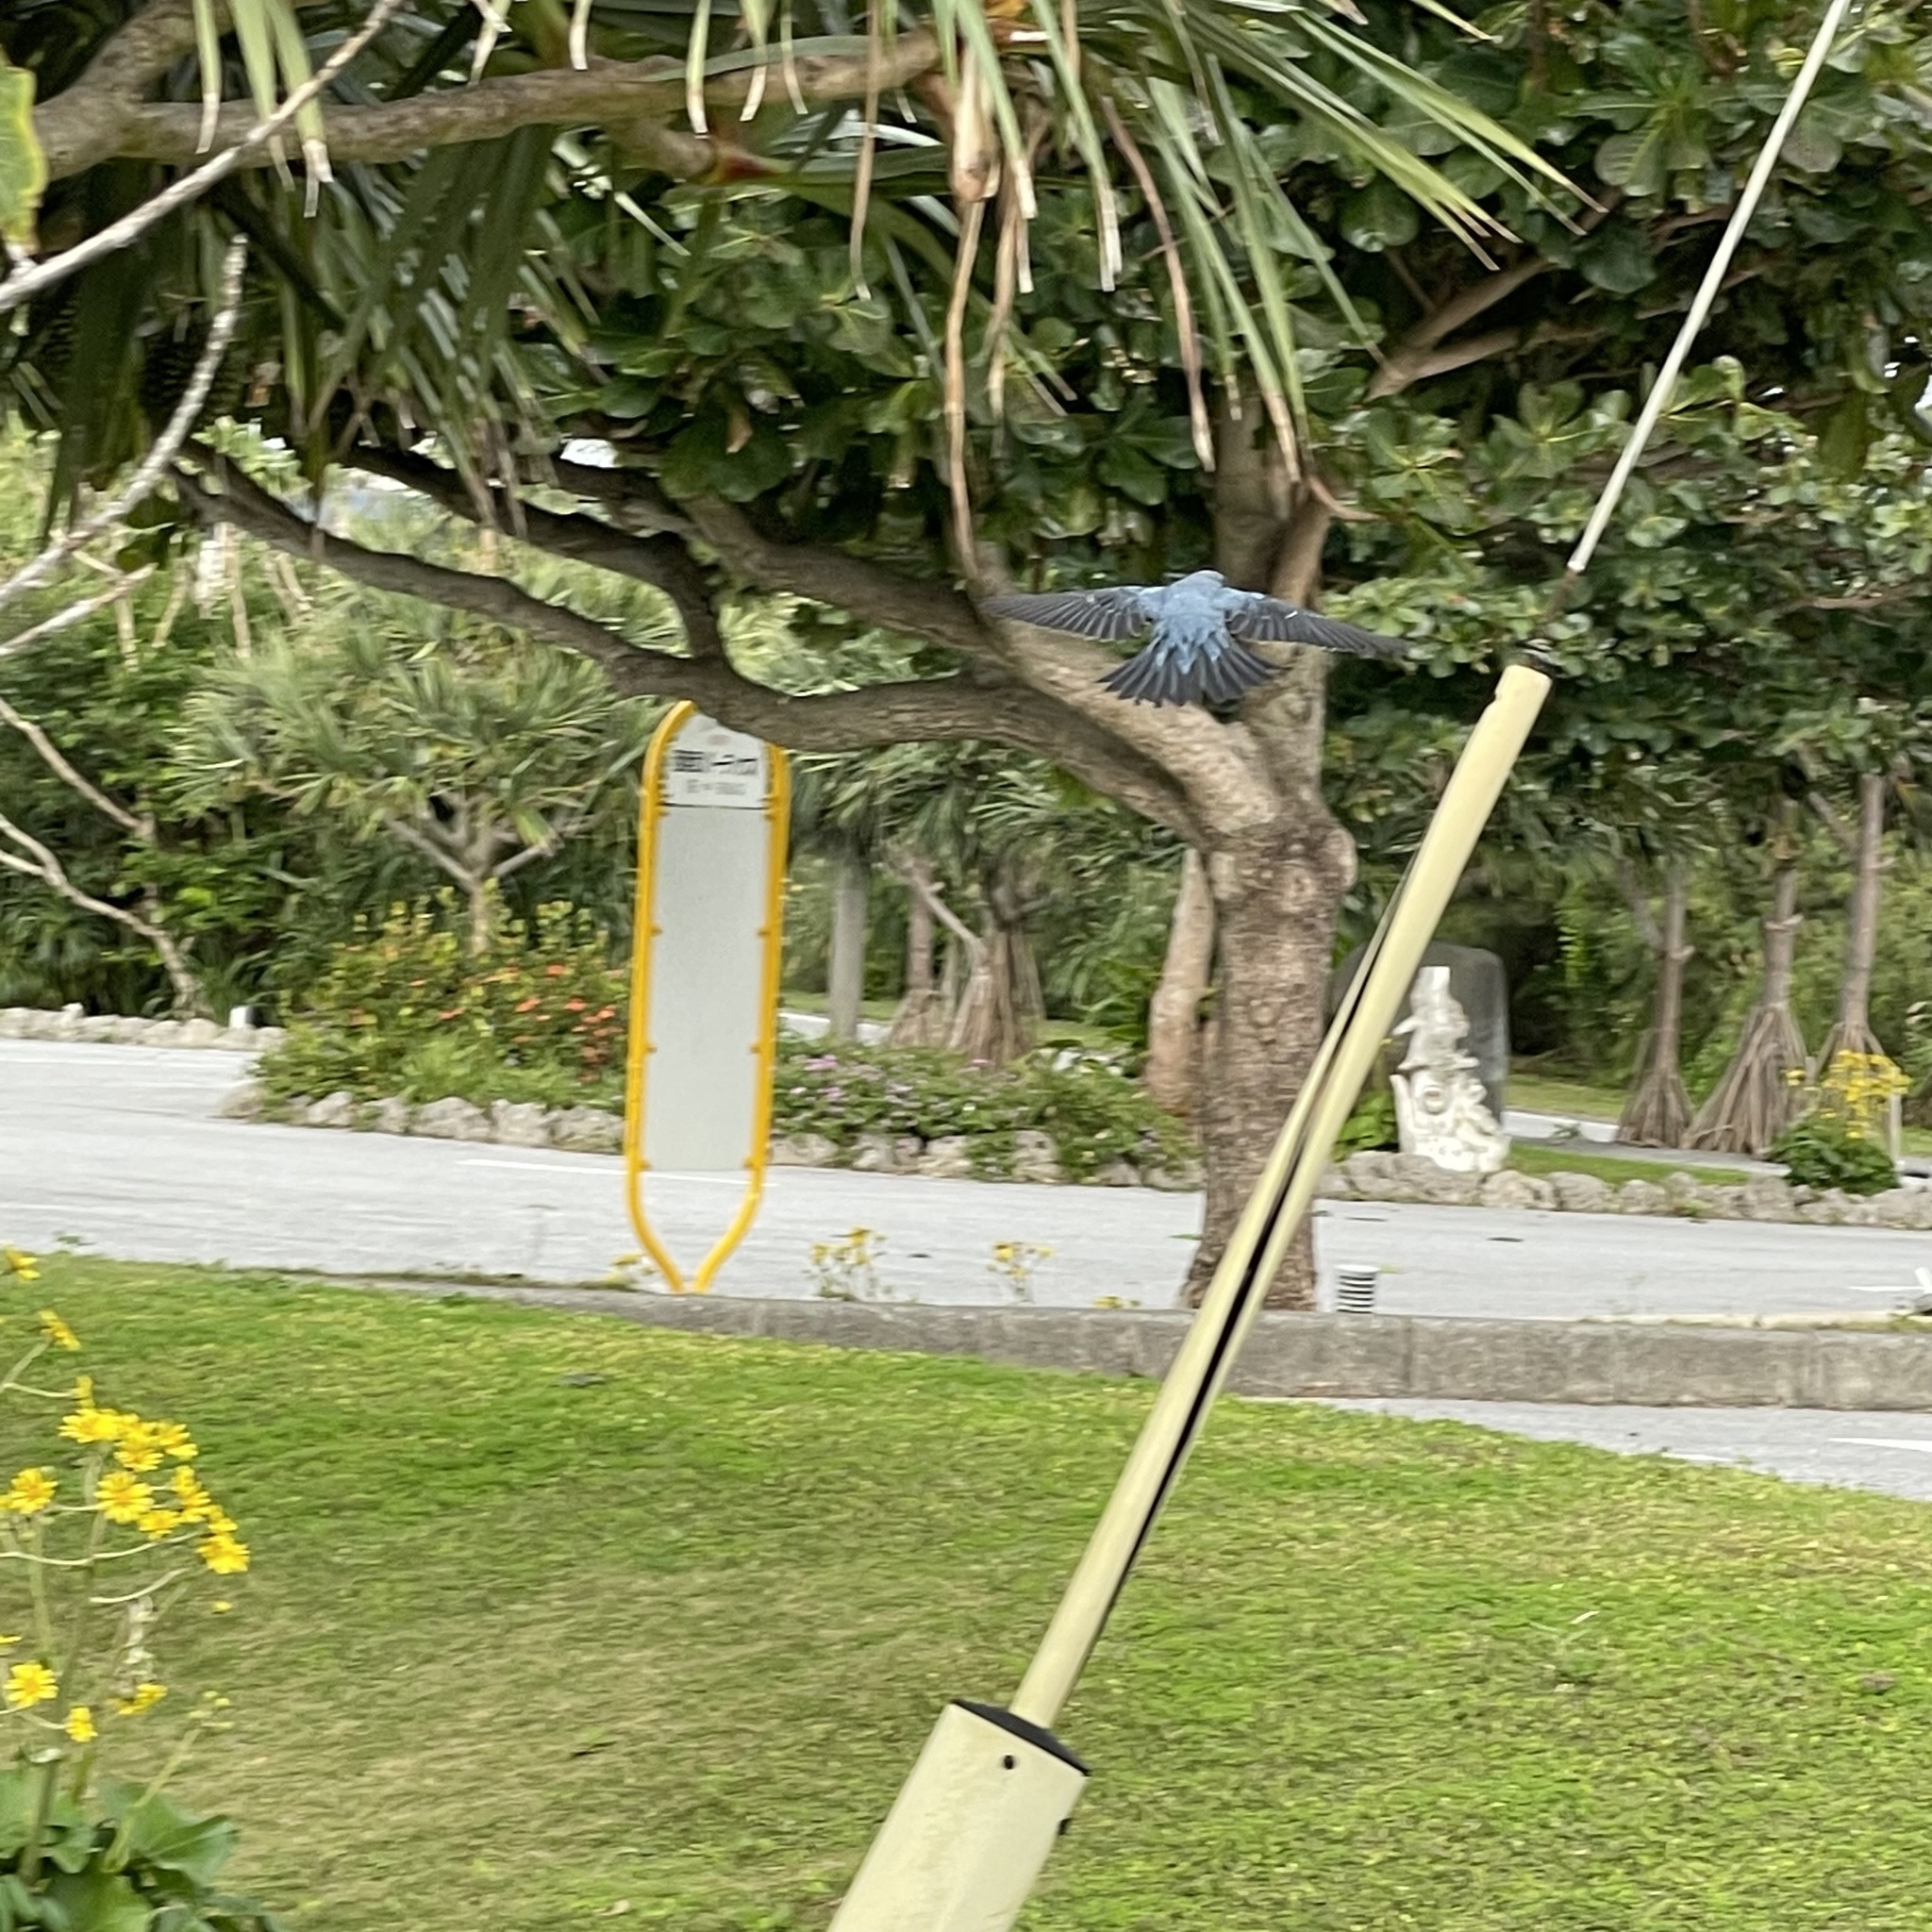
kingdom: Animalia
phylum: Chordata
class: Aves
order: Passeriformes
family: Muscicapidae
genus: Monticola
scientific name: Monticola solitarius
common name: Blue rock thrush
